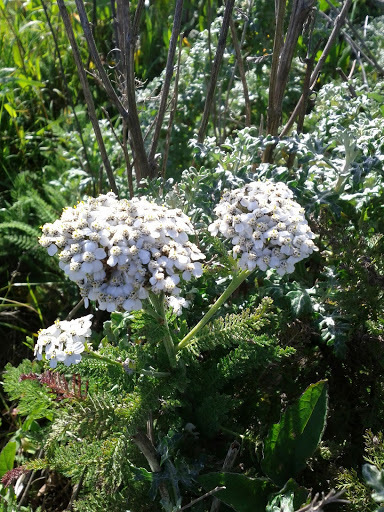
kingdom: Plantae
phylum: Tracheophyta
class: Magnoliopsida
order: Asterales
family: Asteraceae
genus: Achillea
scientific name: Achillea millefolium
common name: Yarrow
